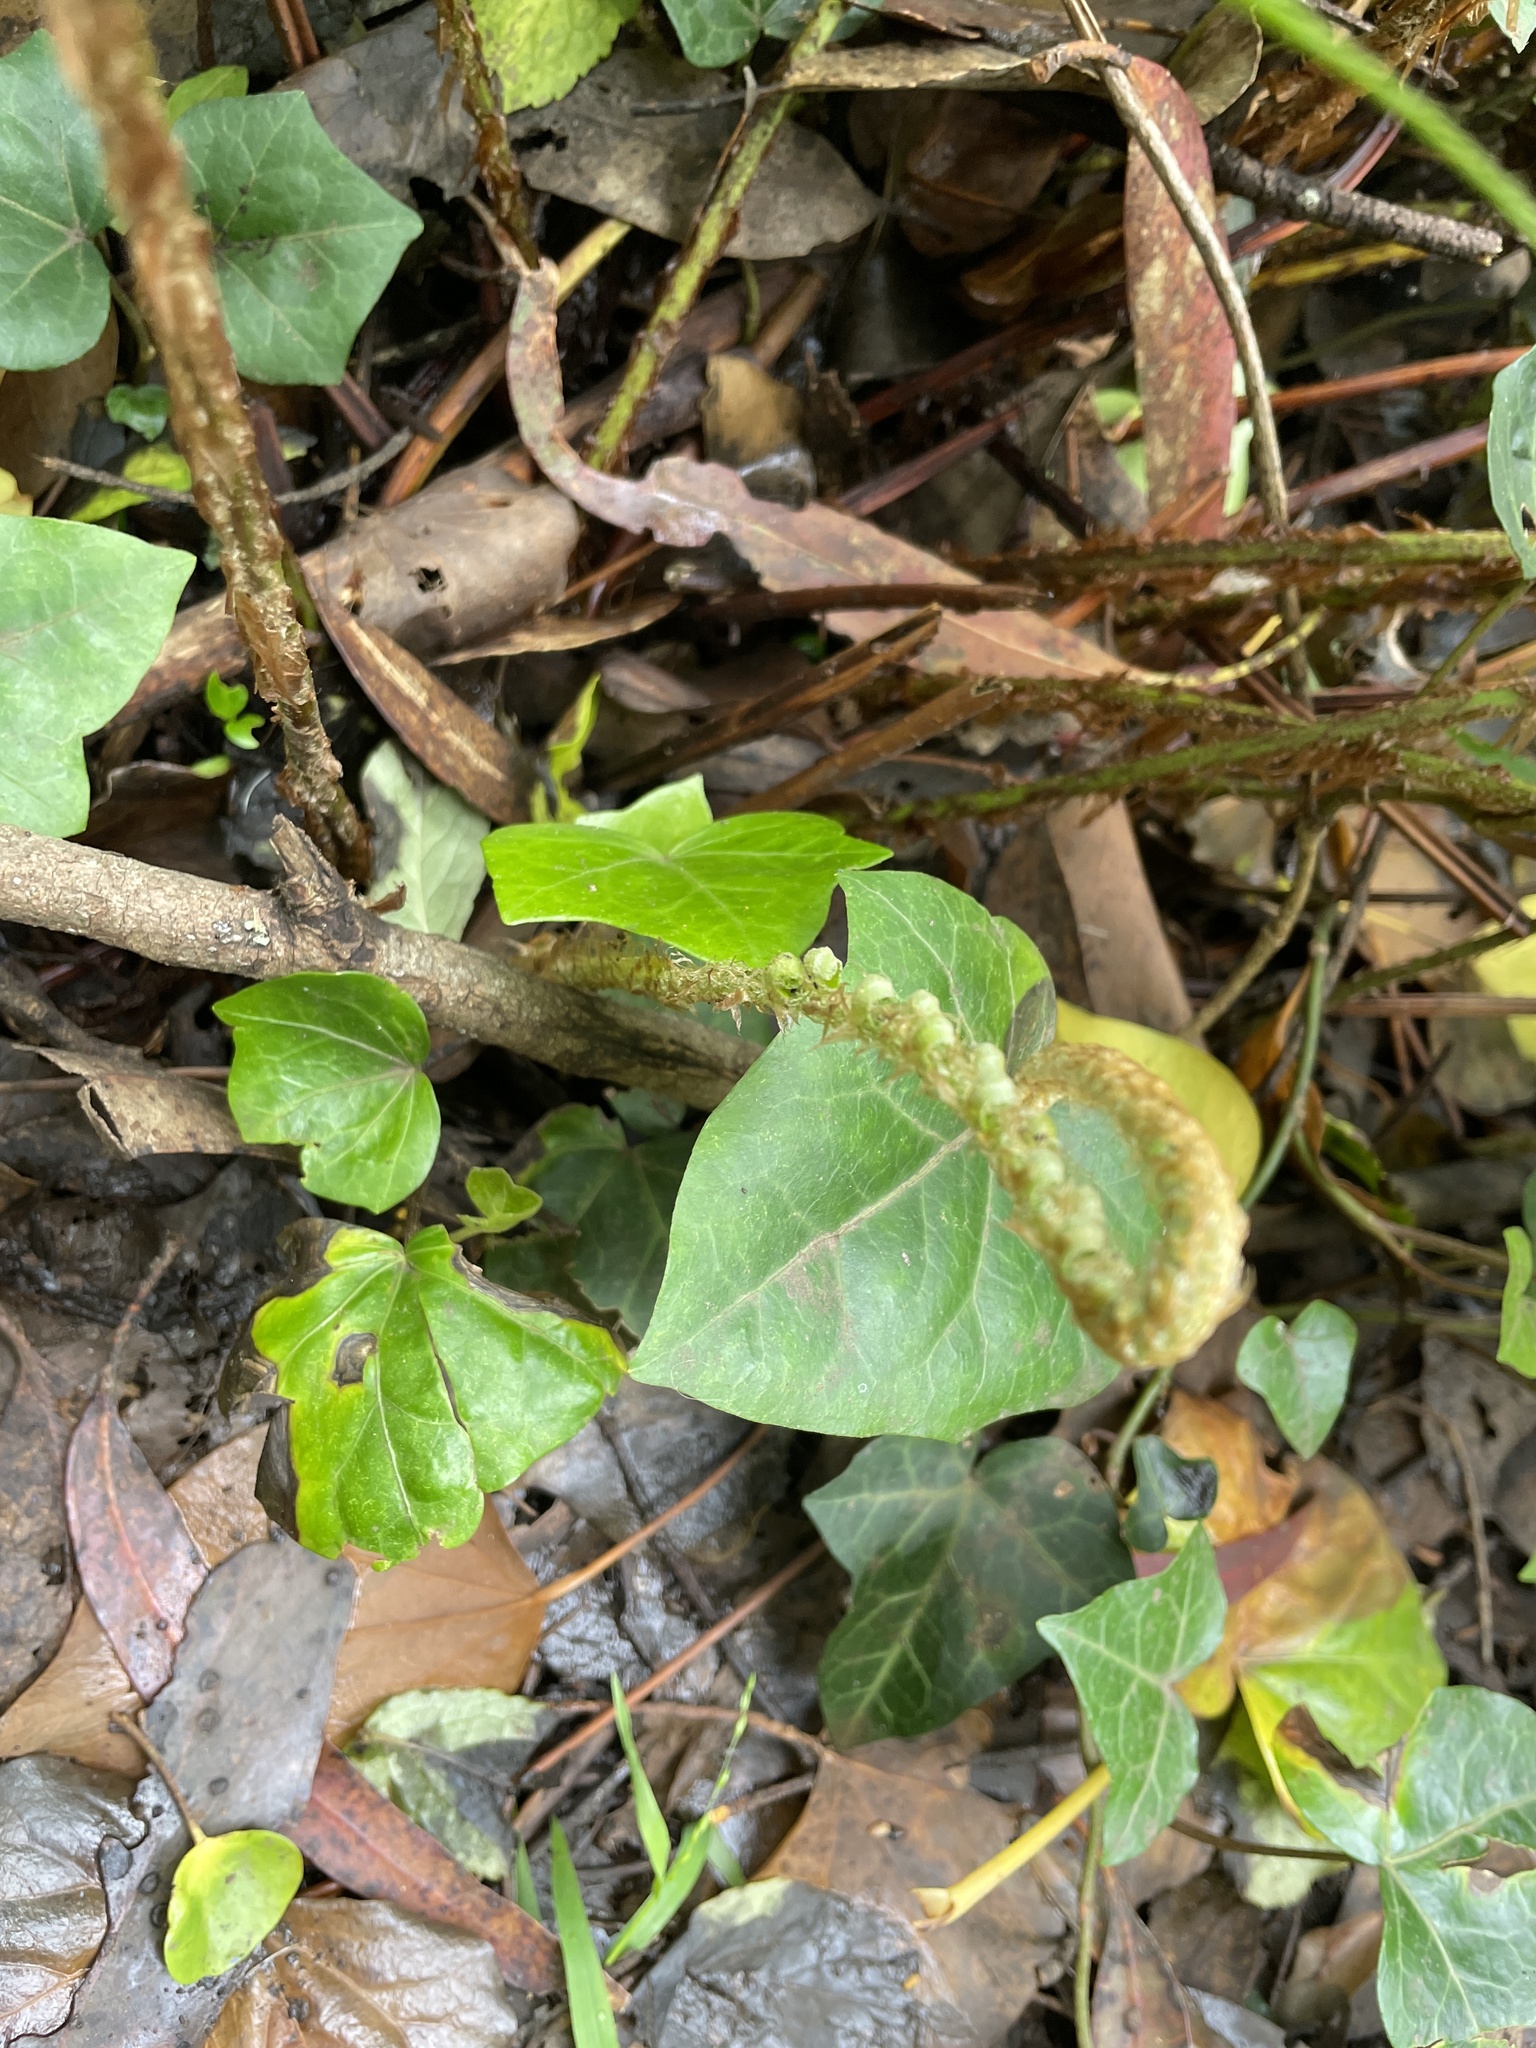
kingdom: Plantae
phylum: Tracheophyta
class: Polypodiopsida
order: Polypodiales
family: Dryopteridaceae
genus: Polystichum
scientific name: Polystichum munitum
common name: Western sword-fern
